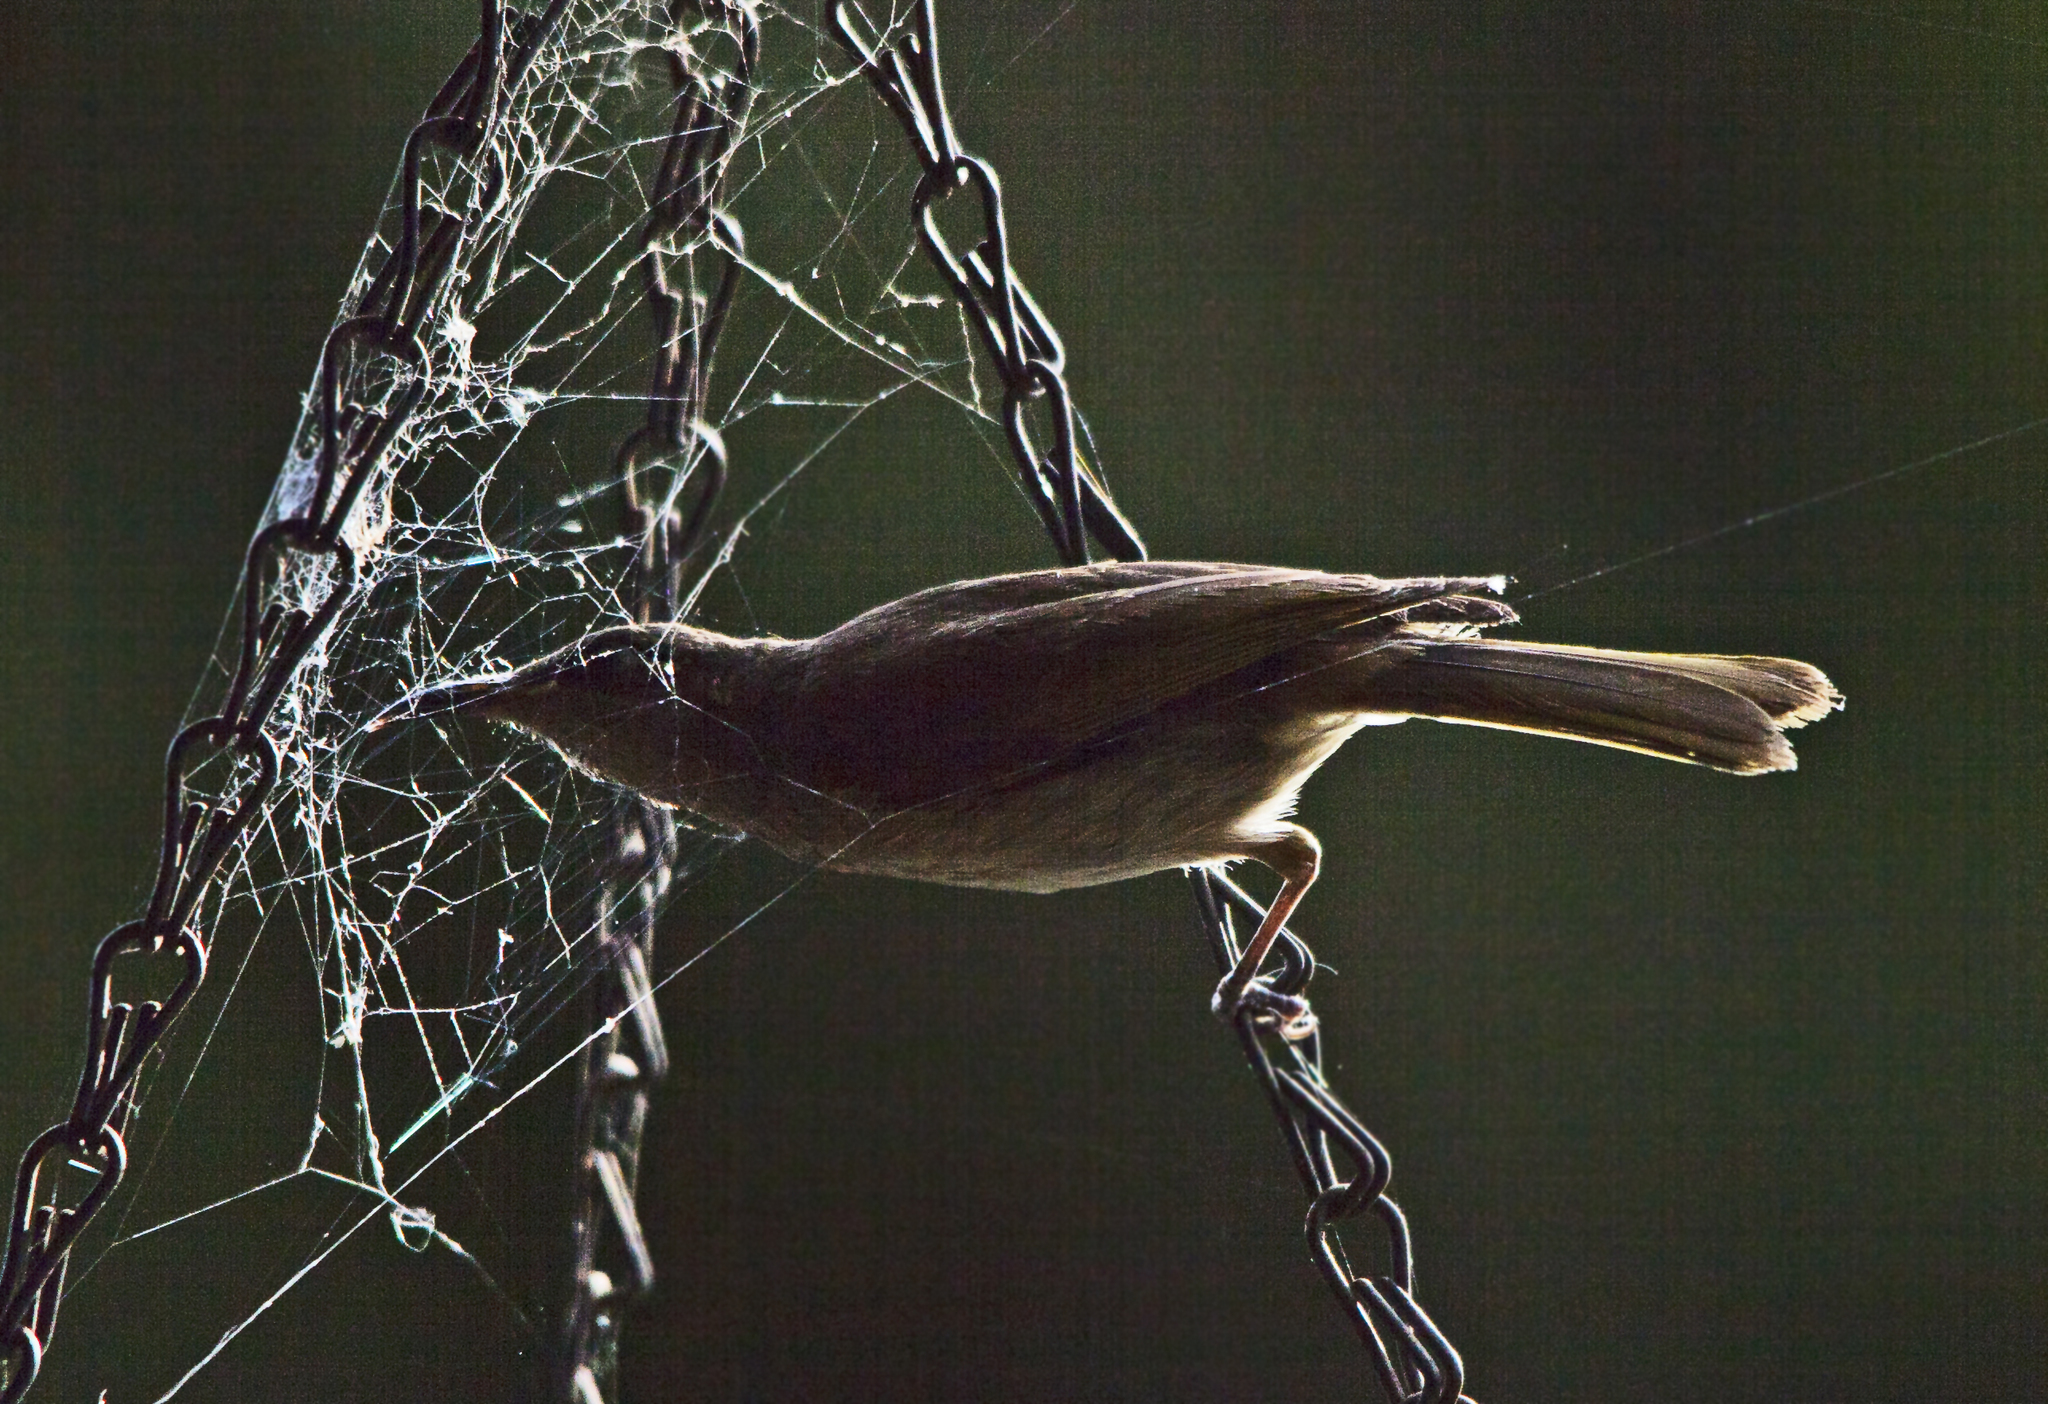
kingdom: Animalia
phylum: Chordata
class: Aves
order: Passeriformes
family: Meliphagidae
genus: Lichmera
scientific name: Lichmera indistincta
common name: Brown honeyeater
